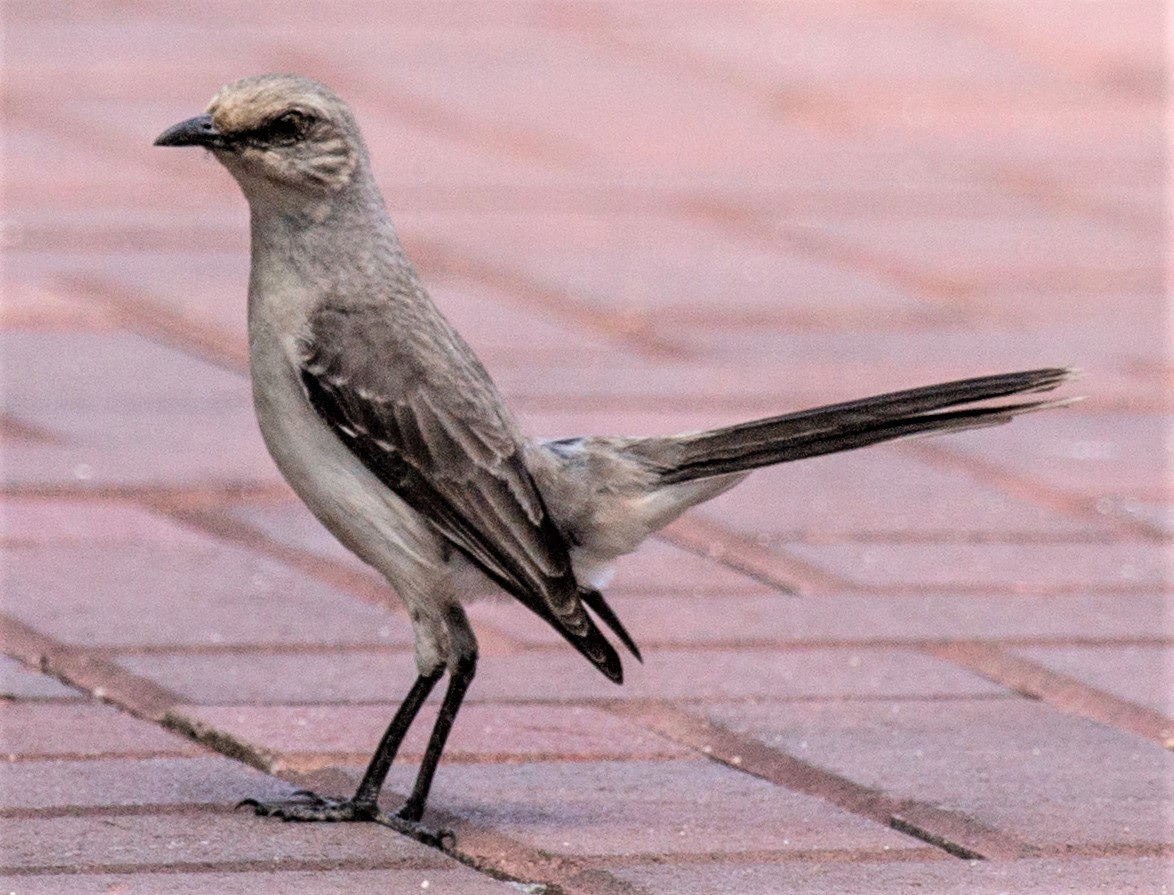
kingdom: Animalia
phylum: Chordata
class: Aves
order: Passeriformes
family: Mimidae
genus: Mimus
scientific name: Mimus gilvus
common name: Tropical mockingbird
